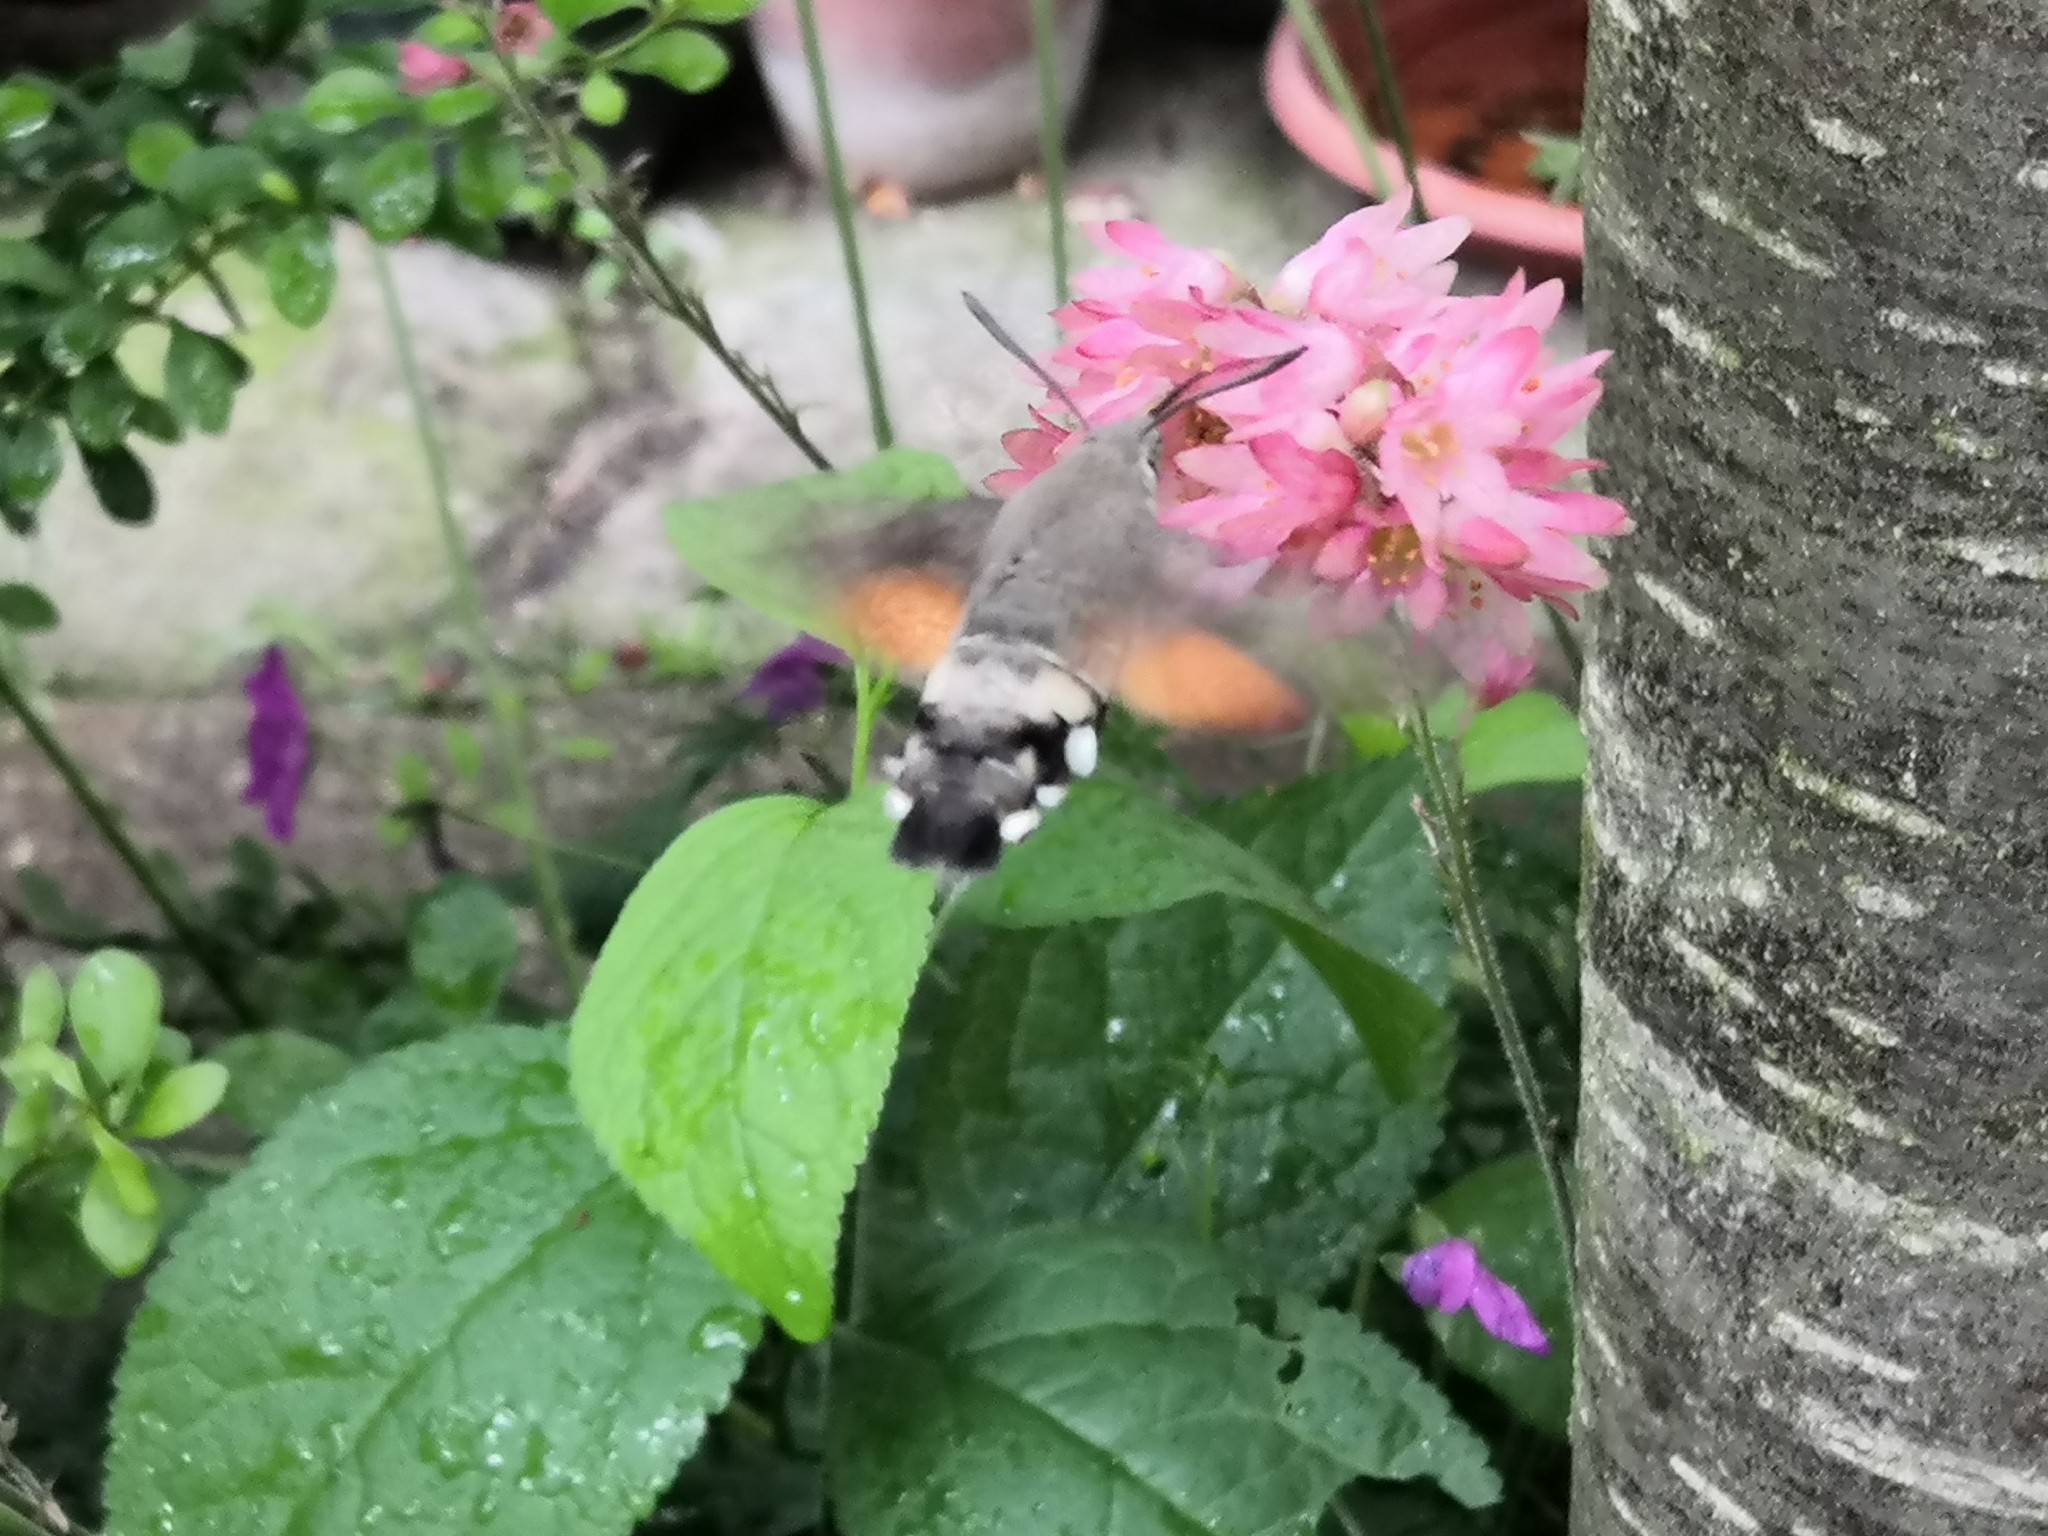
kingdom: Animalia
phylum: Arthropoda
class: Insecta
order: Lepidoptera
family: Sphingidae
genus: Macroglossum
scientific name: Macroglossum stellatarum
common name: Humming-bird hawk-moth
